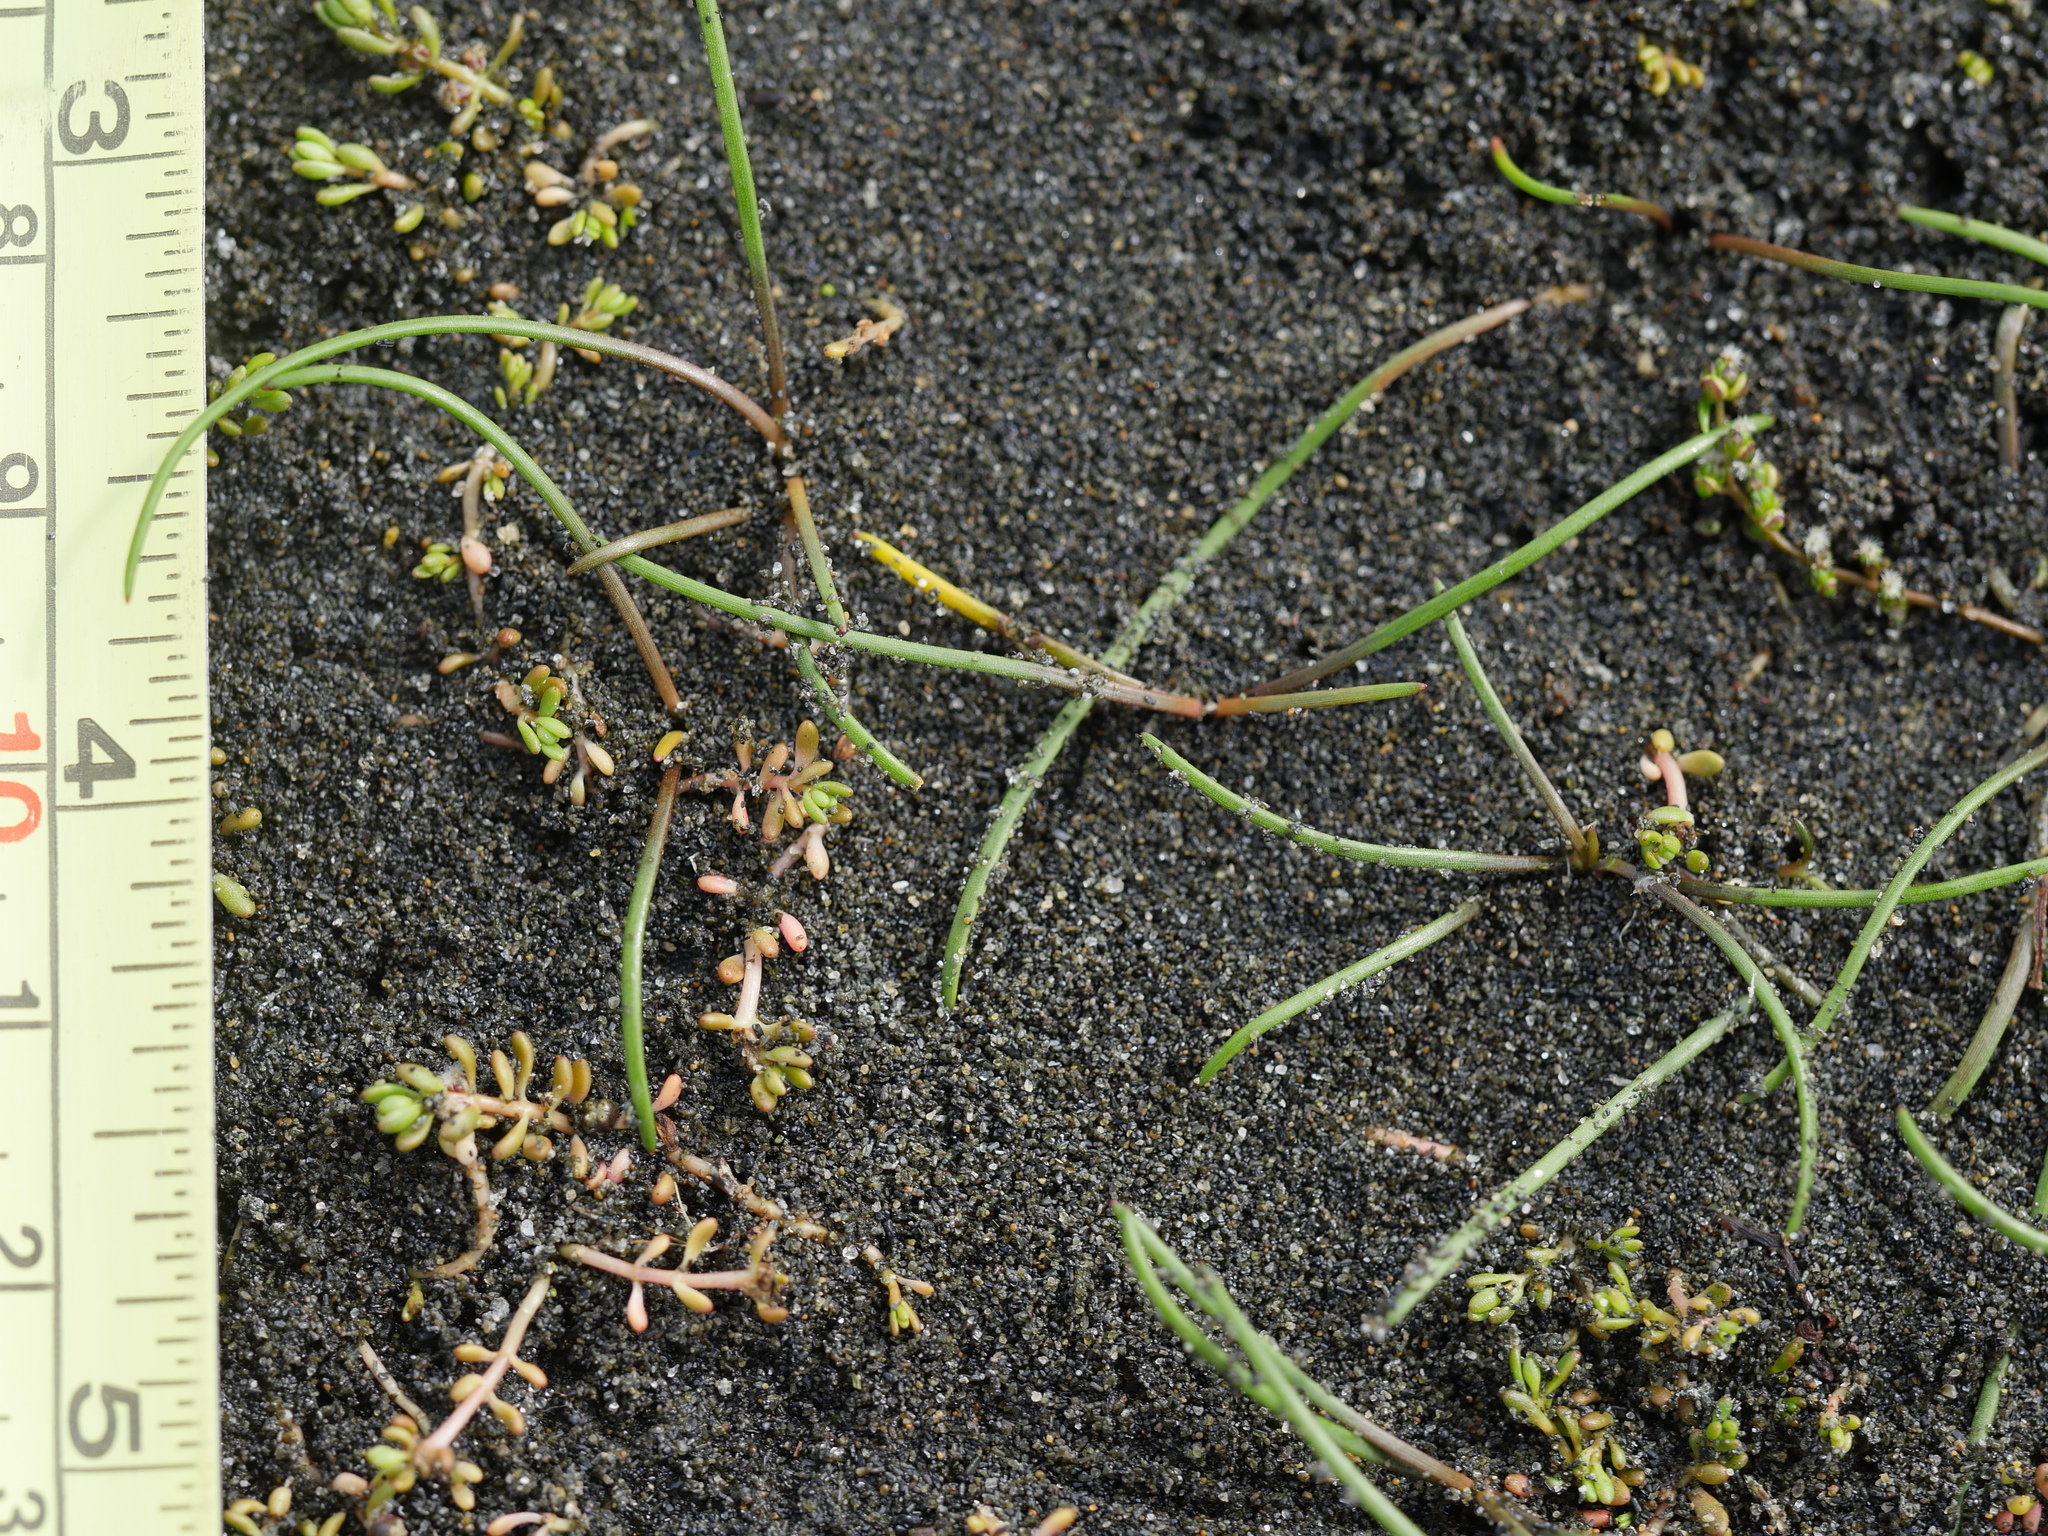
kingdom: Plantae
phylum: Tracheophyta
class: Magnoliopsida
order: Saxifragales
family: Haloragaceae
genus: Myriophyllum
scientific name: Myriophyllum votschii
